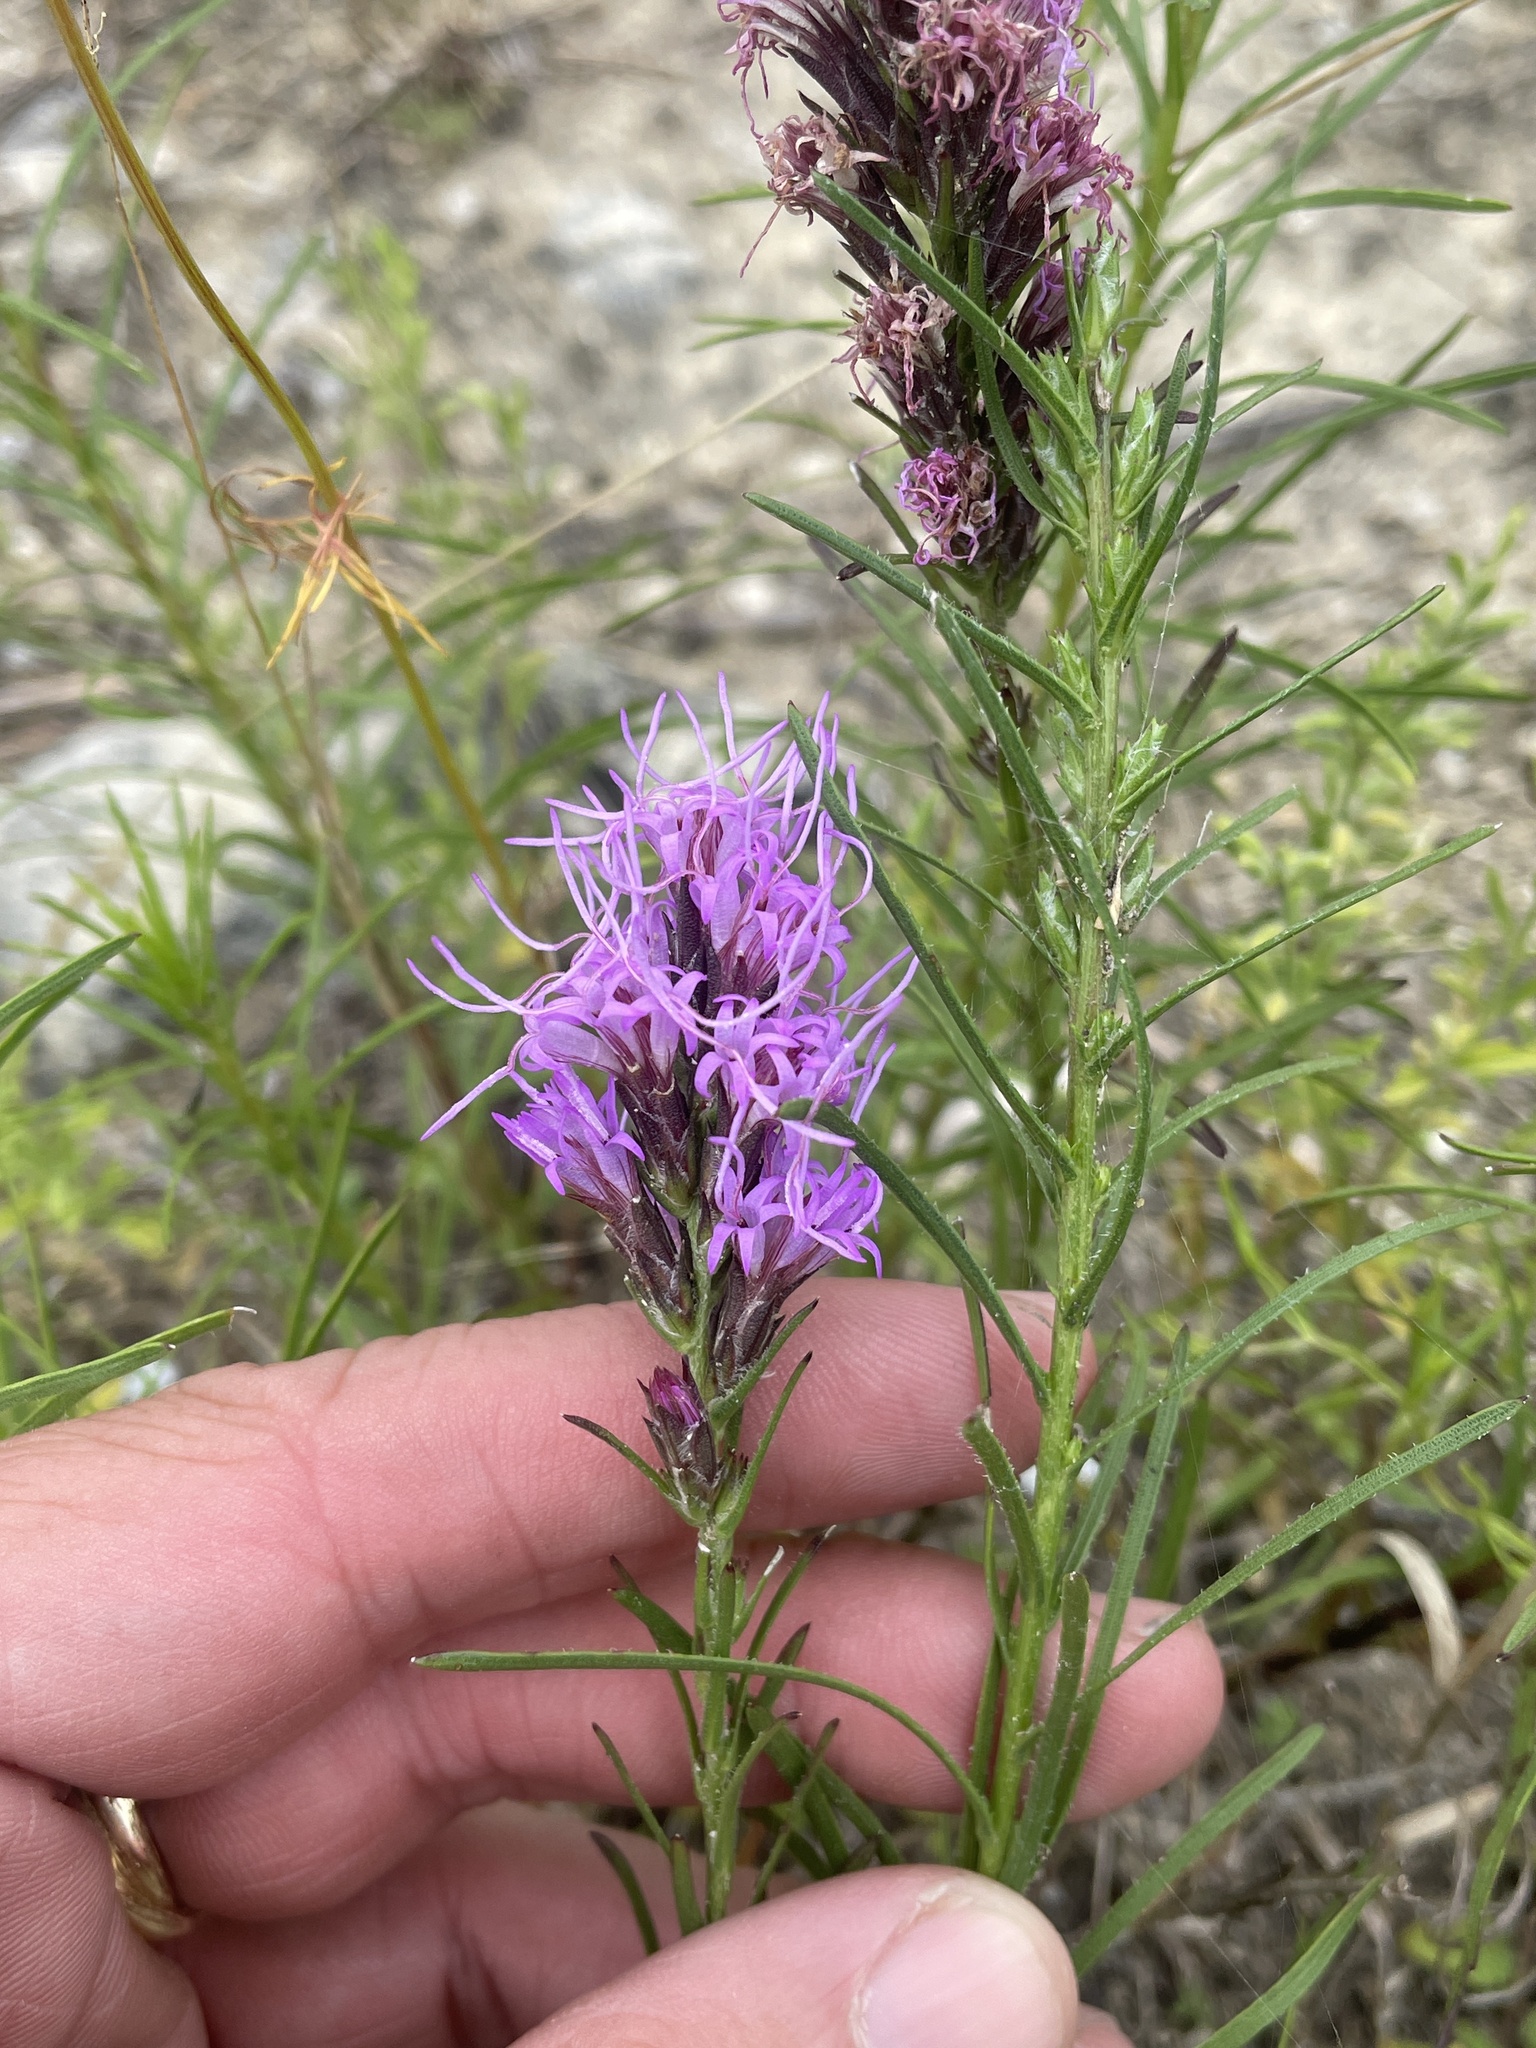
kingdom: Plantae
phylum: Tracheophyta
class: Magnoliopsida
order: Asterales
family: Asteraceae
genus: Liatris
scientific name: Liatris punctata
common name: Dotted gayfeather
